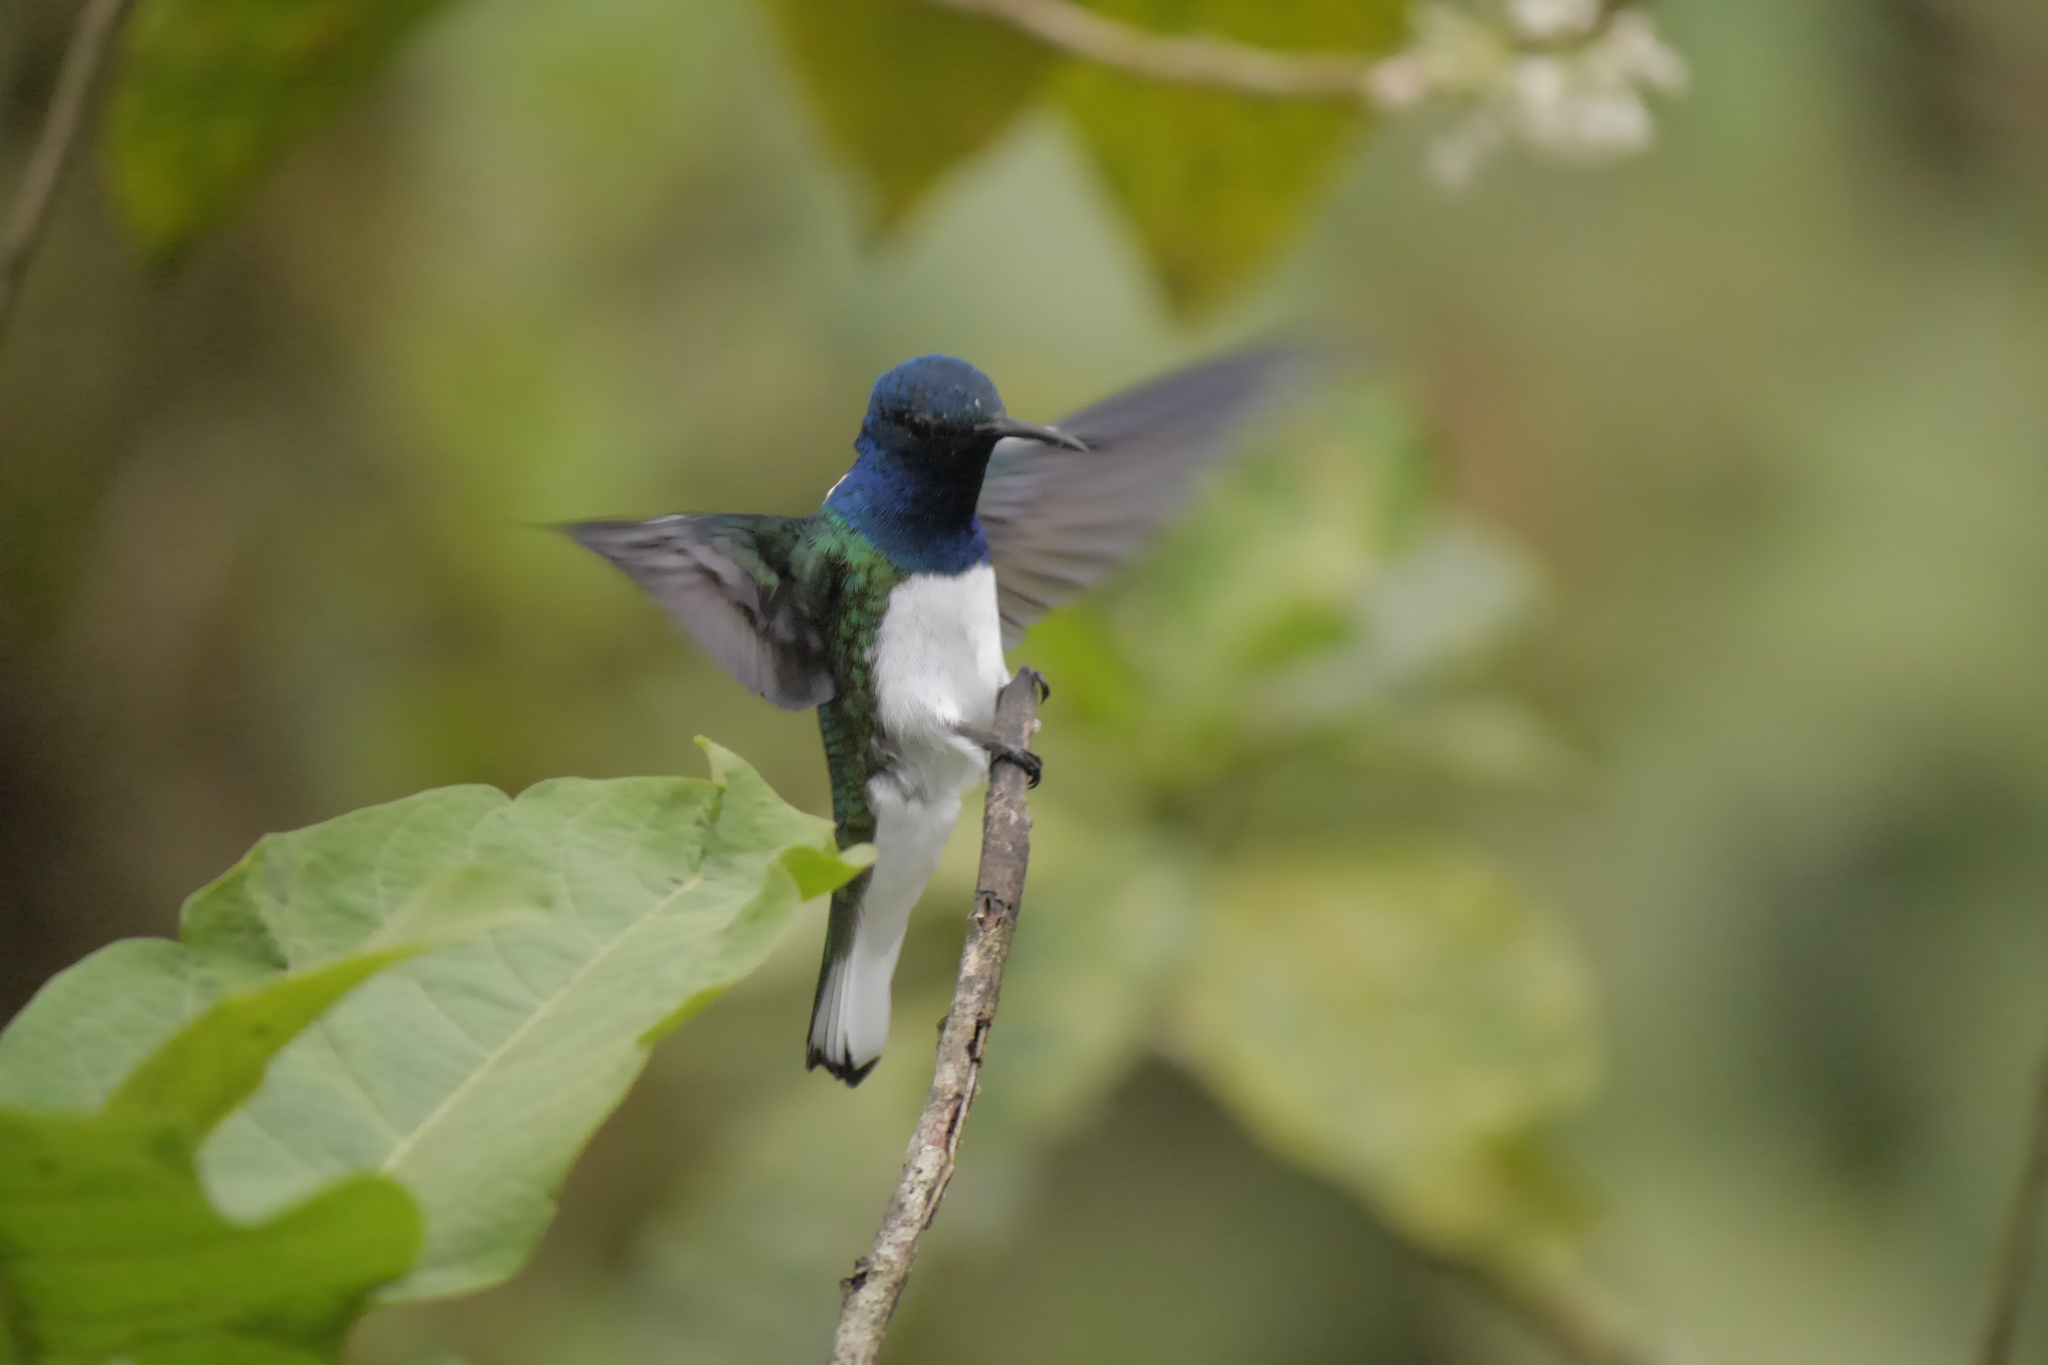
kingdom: Animalia
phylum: Chordata
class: Aves
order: Apodiformes
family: Trochilidae
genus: Florisuga
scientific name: Florisuga mellivora
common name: White-necked jacobin
